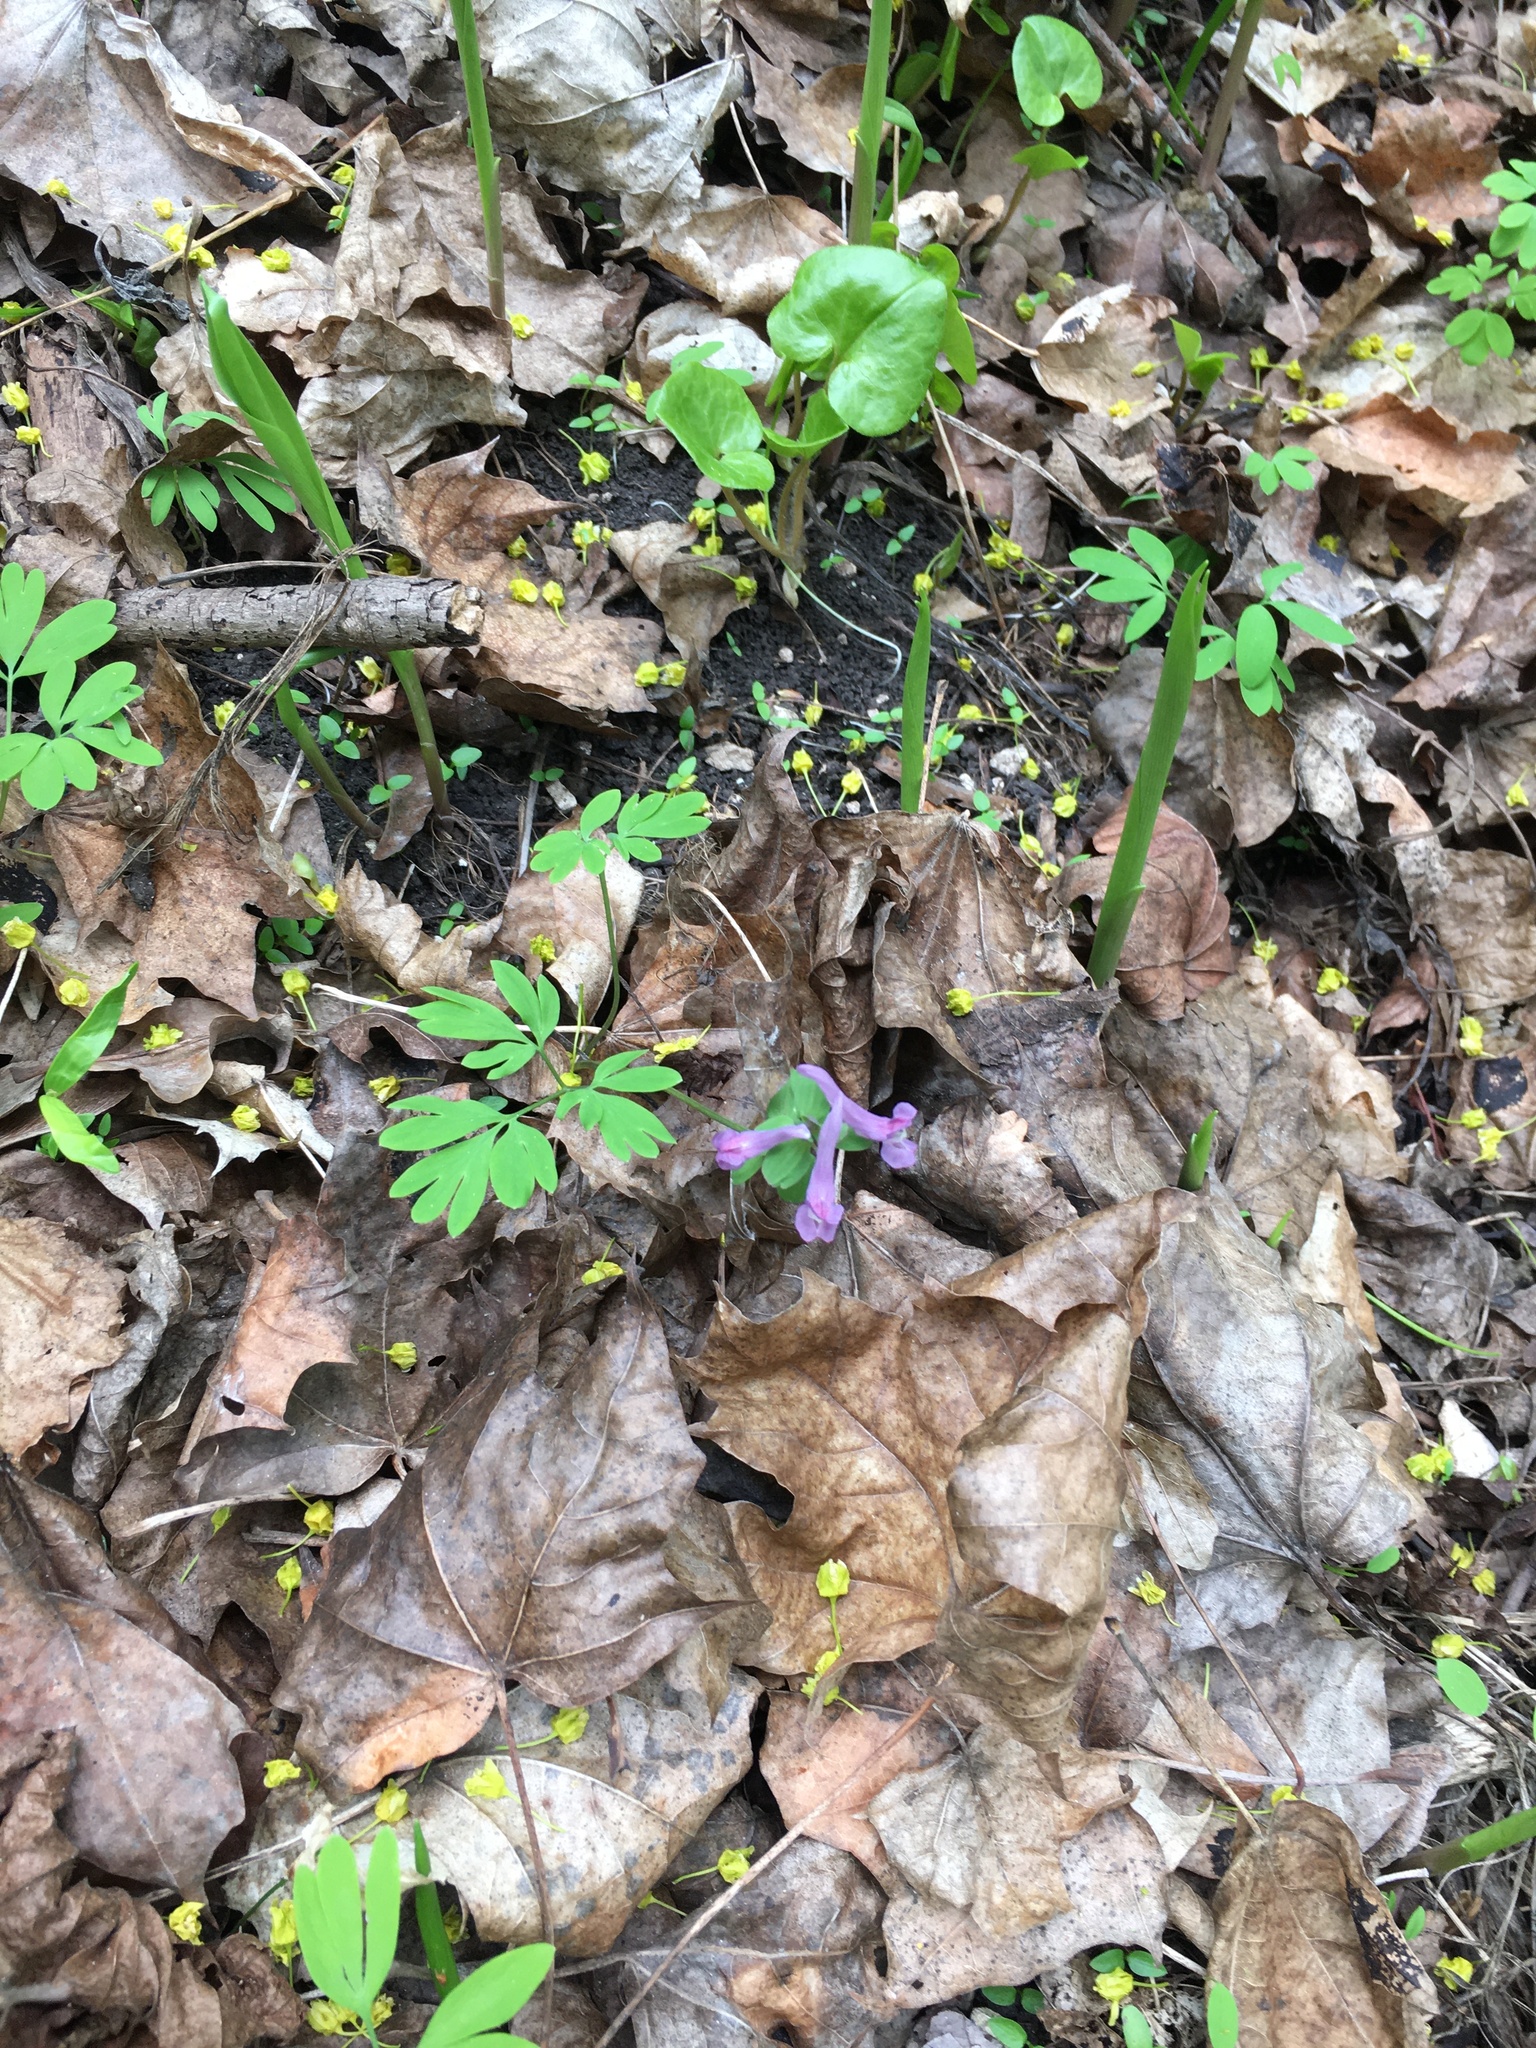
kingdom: Plantae
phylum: Tracheophyta
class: Magnoliopsida
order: Ranunculales
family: Papaveraceae
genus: Corydalis
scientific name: Corydalis solida
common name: Bird-in-a-bush
